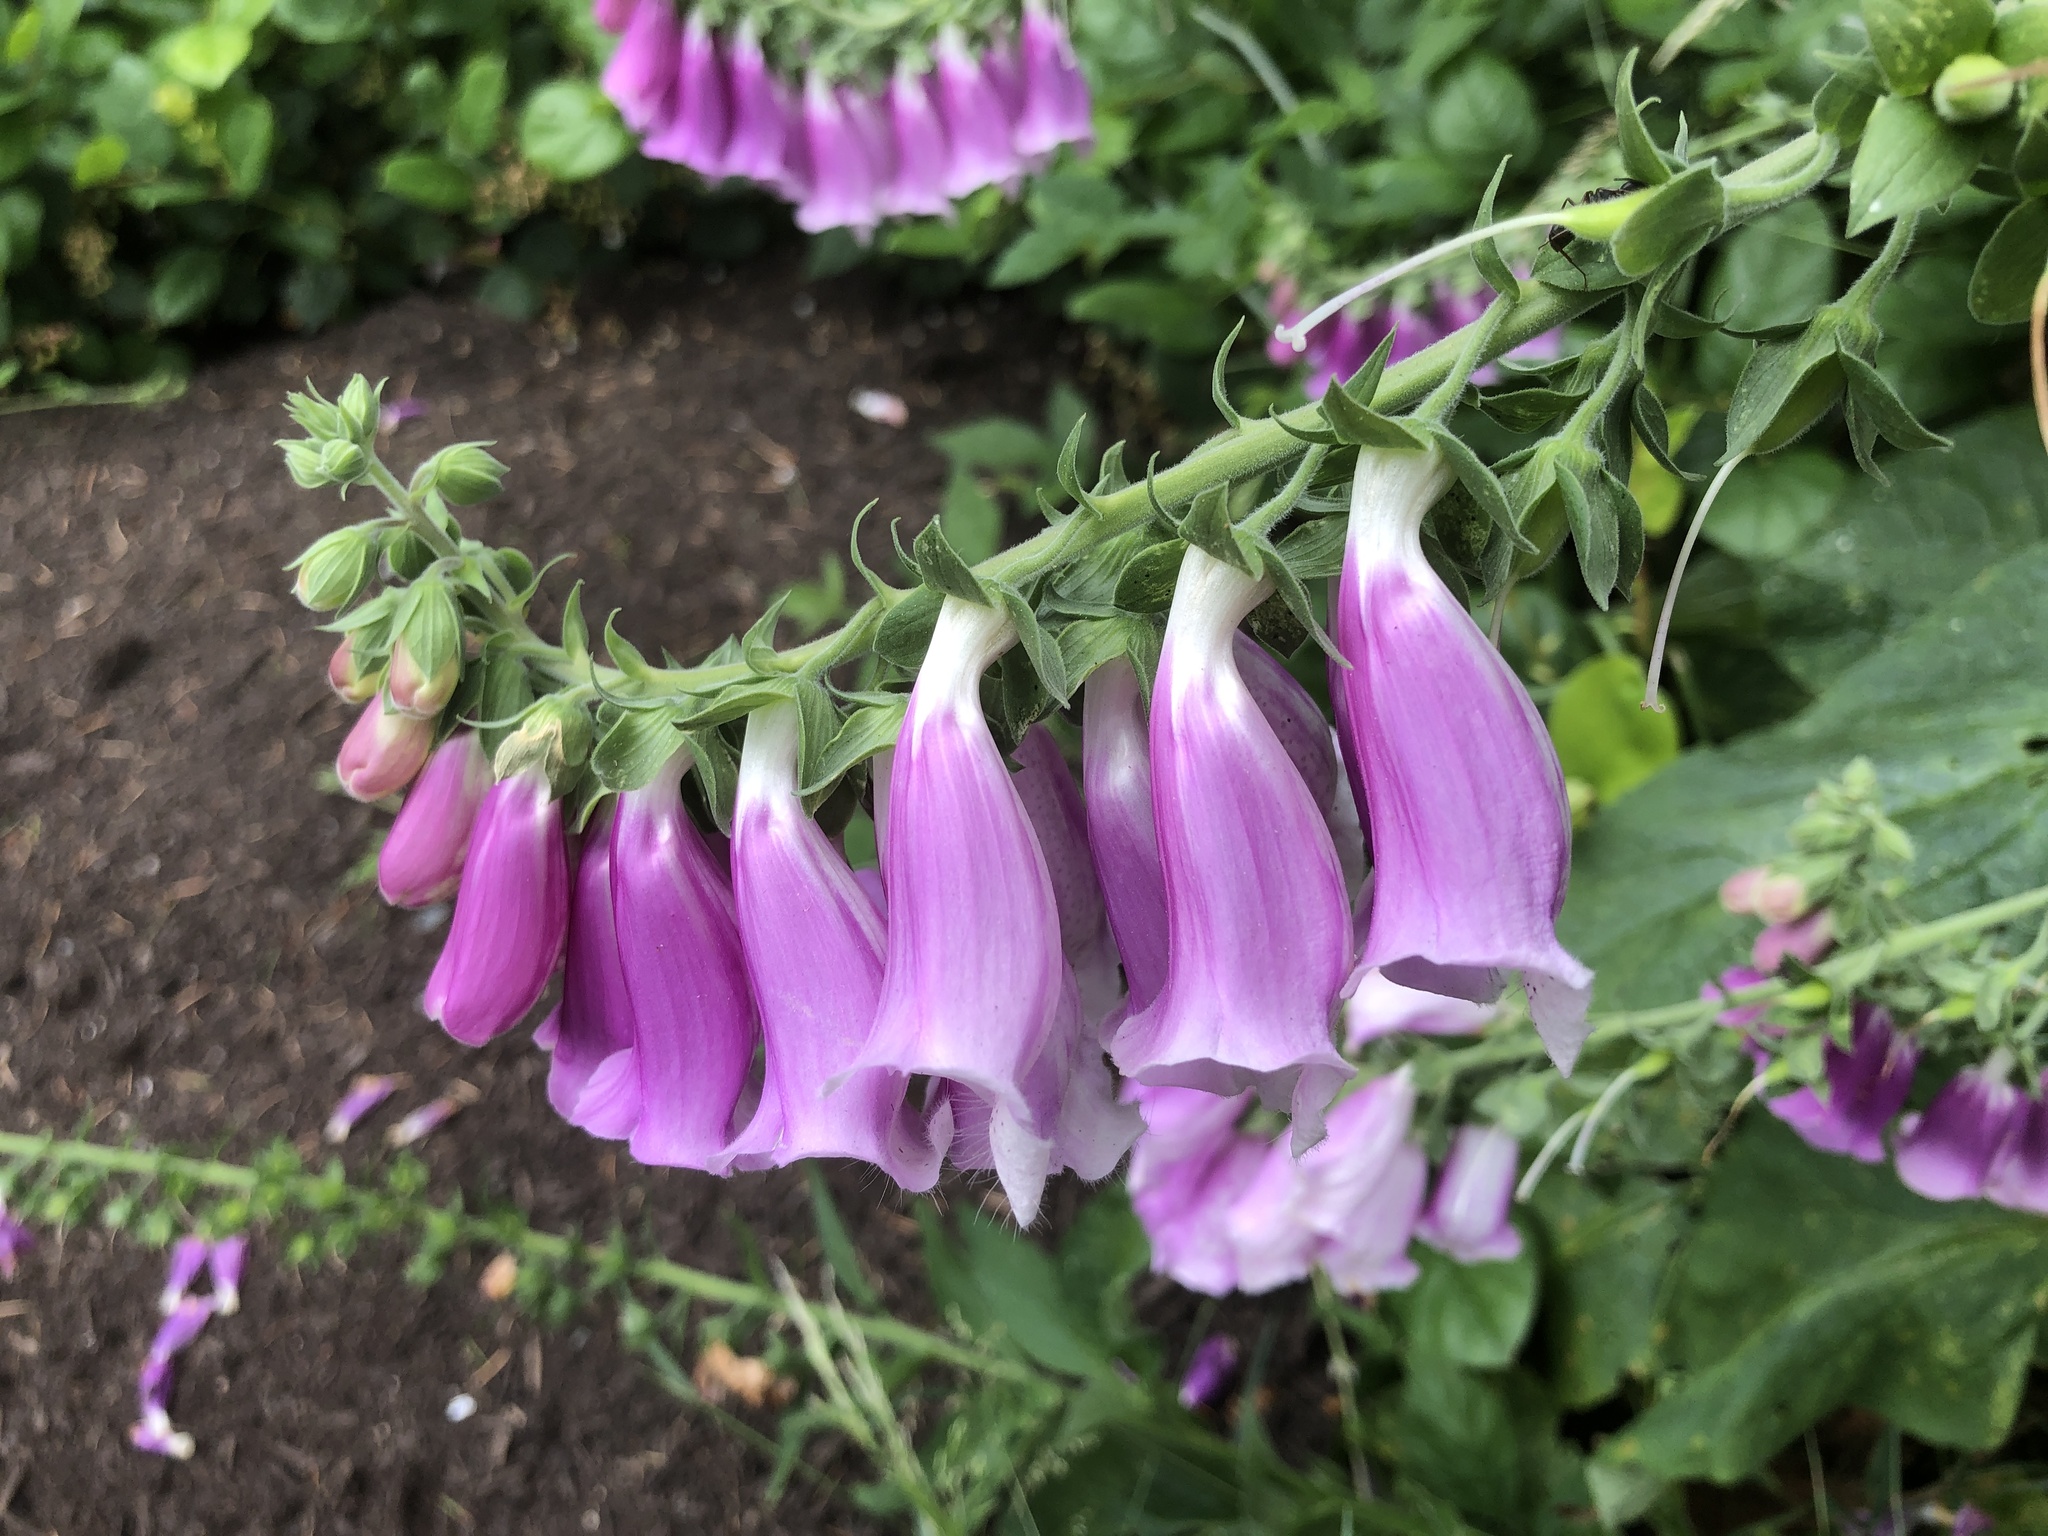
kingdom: Plantae
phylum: Tracheophyta
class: Magnoliopsida
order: Lamiales
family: Plantaginaceae
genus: Digitalis
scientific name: Digitalis purpurea
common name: Foxglove
